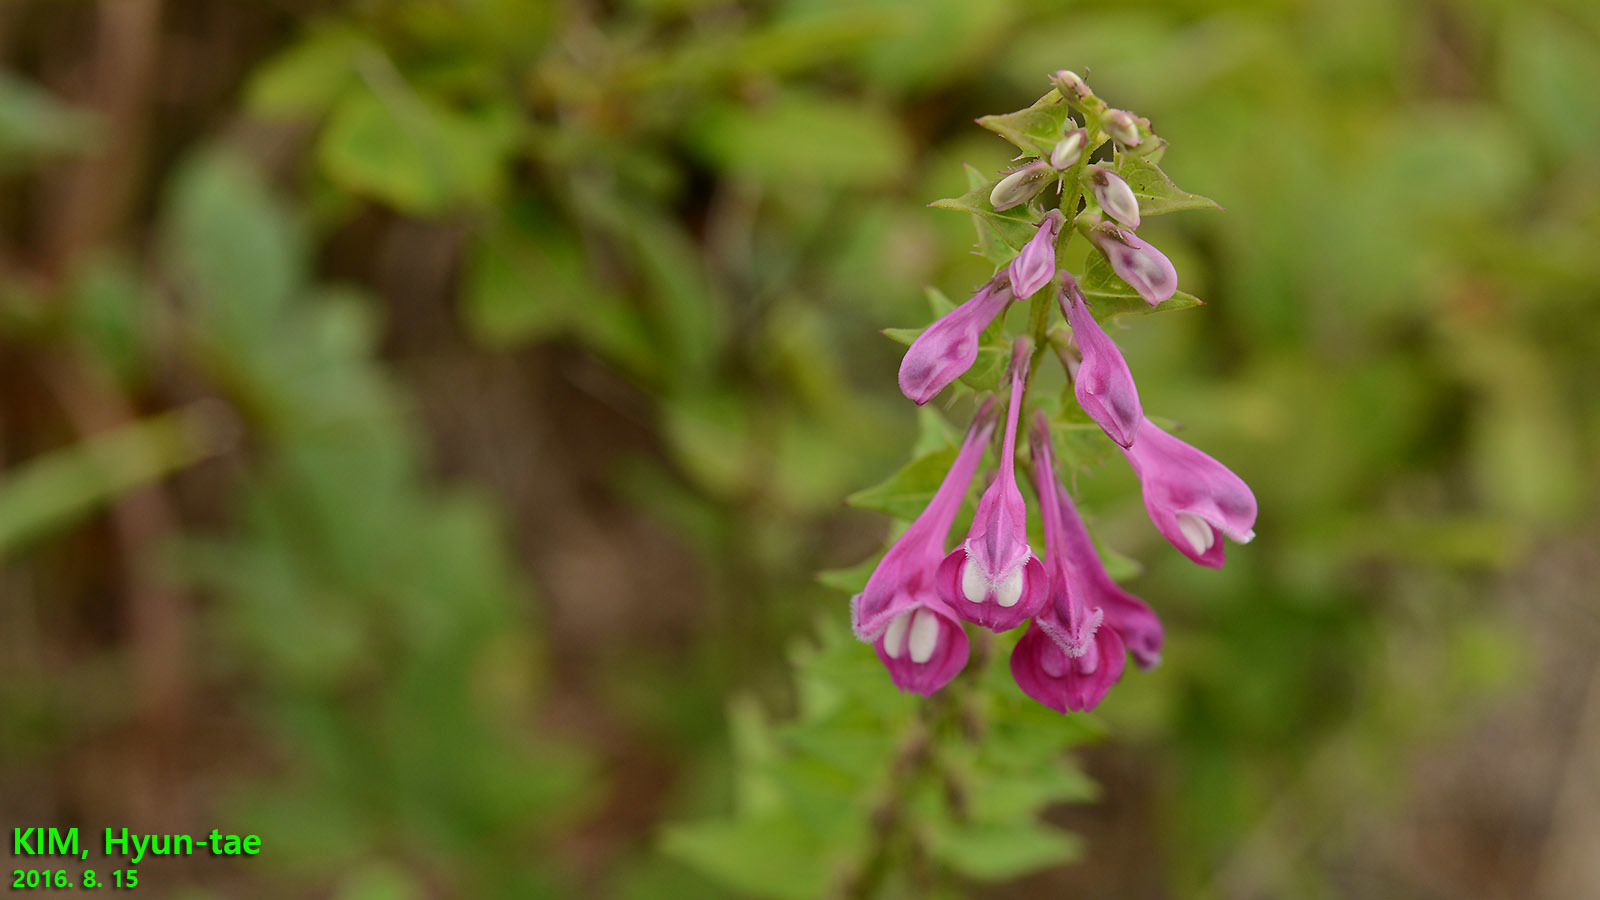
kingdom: Plantae
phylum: Tracheophyta
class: Magnoliopsida
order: Lamiales
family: Orobanchaceae
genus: Melampyrum
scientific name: Melampyrum roseum
